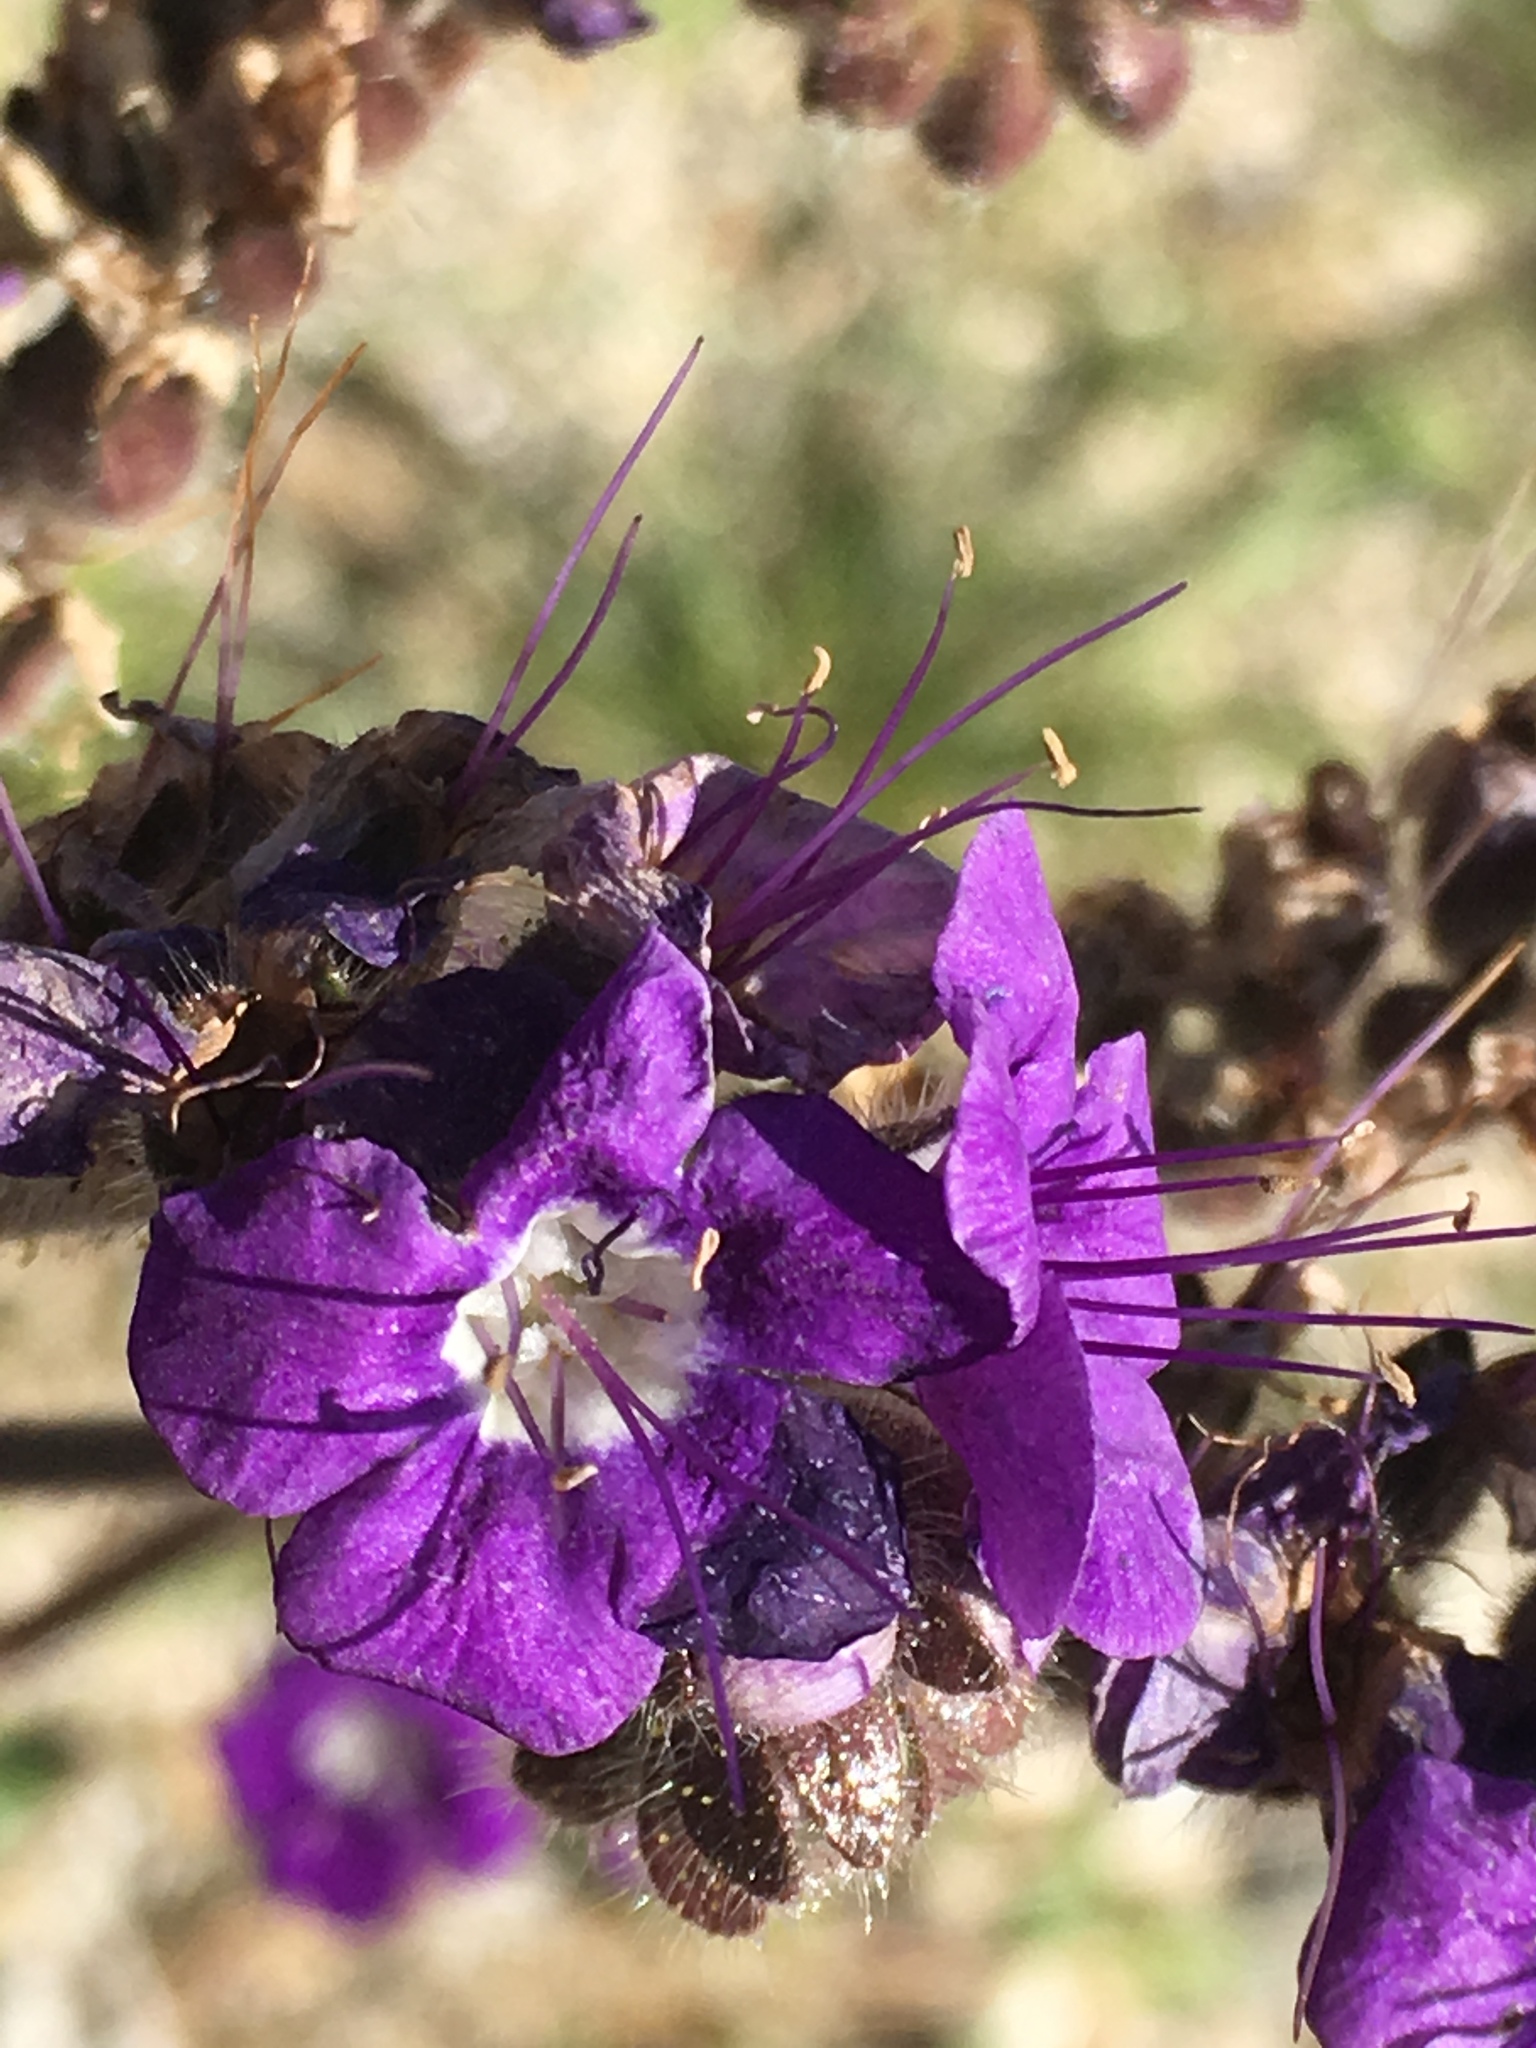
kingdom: Plantae
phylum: Tracheophyta
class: Magnoliopsida
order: Boraginales
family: Hydrophyllaceae
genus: Phacelia
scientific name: Phacelia crenulata
